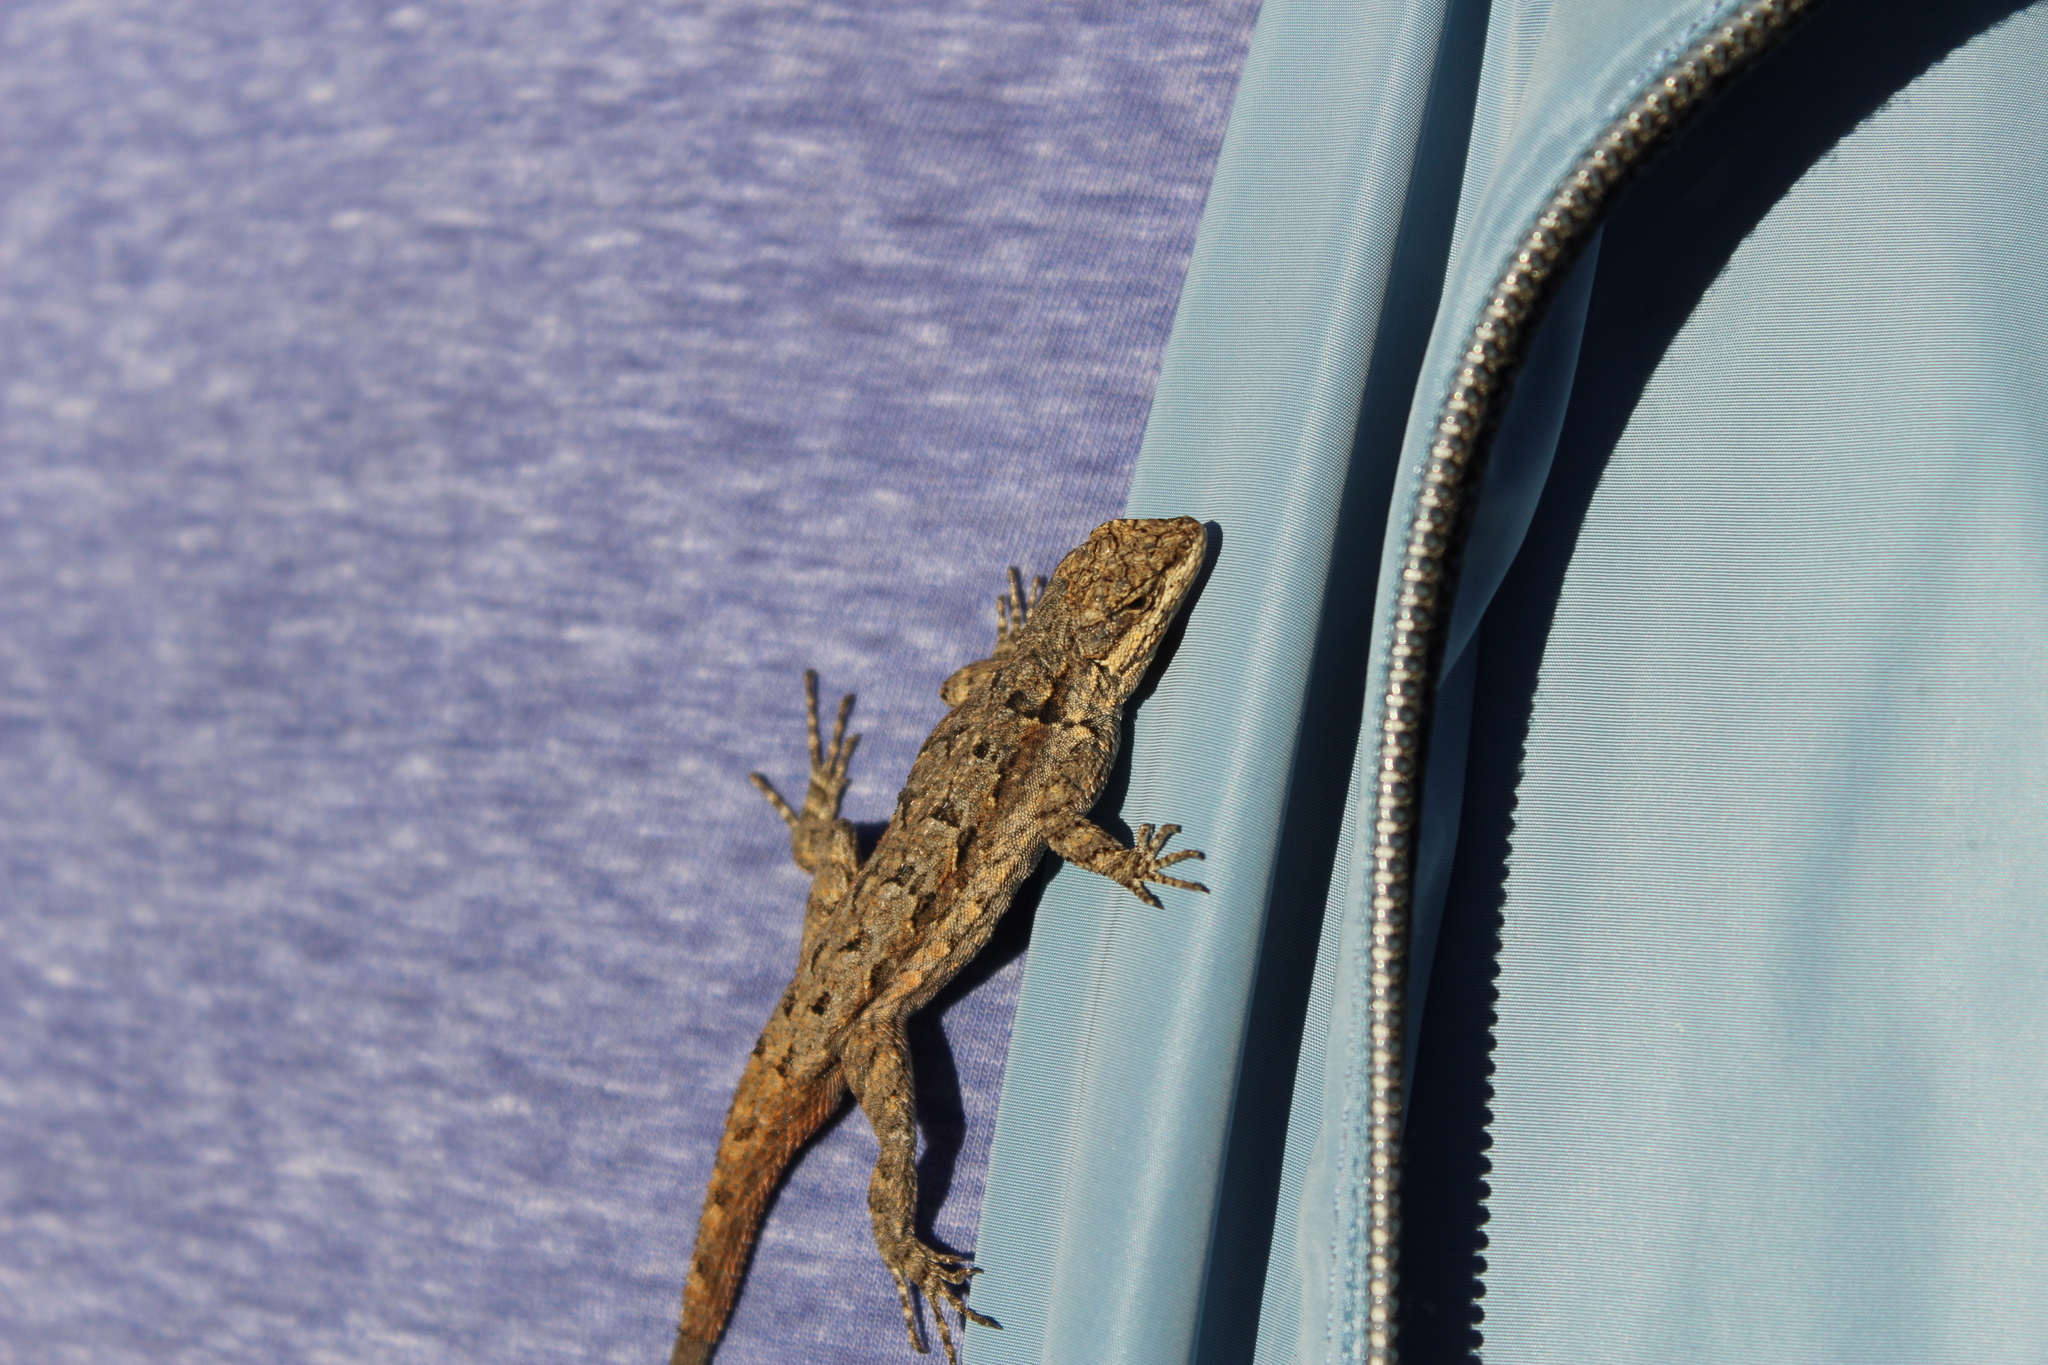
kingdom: Animalia
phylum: Chordata
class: Squamata
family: Phrynosomatidae
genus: Urosaurus
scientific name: Urosaurus ornatus
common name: Ornate tree lizard
